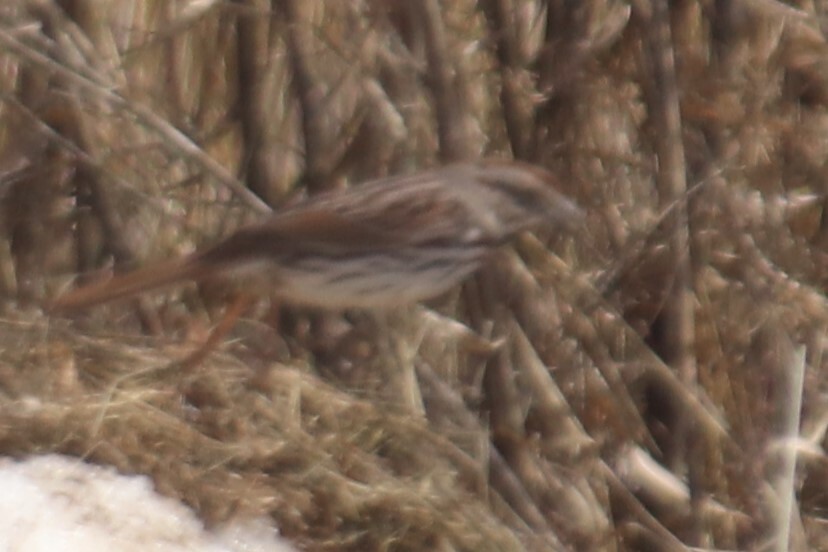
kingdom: Animalia
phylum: Chordata
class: Aves
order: Passeriformes
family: Passerellidae
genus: Melospiza
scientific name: Melospiza melodia
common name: Song sparrow
